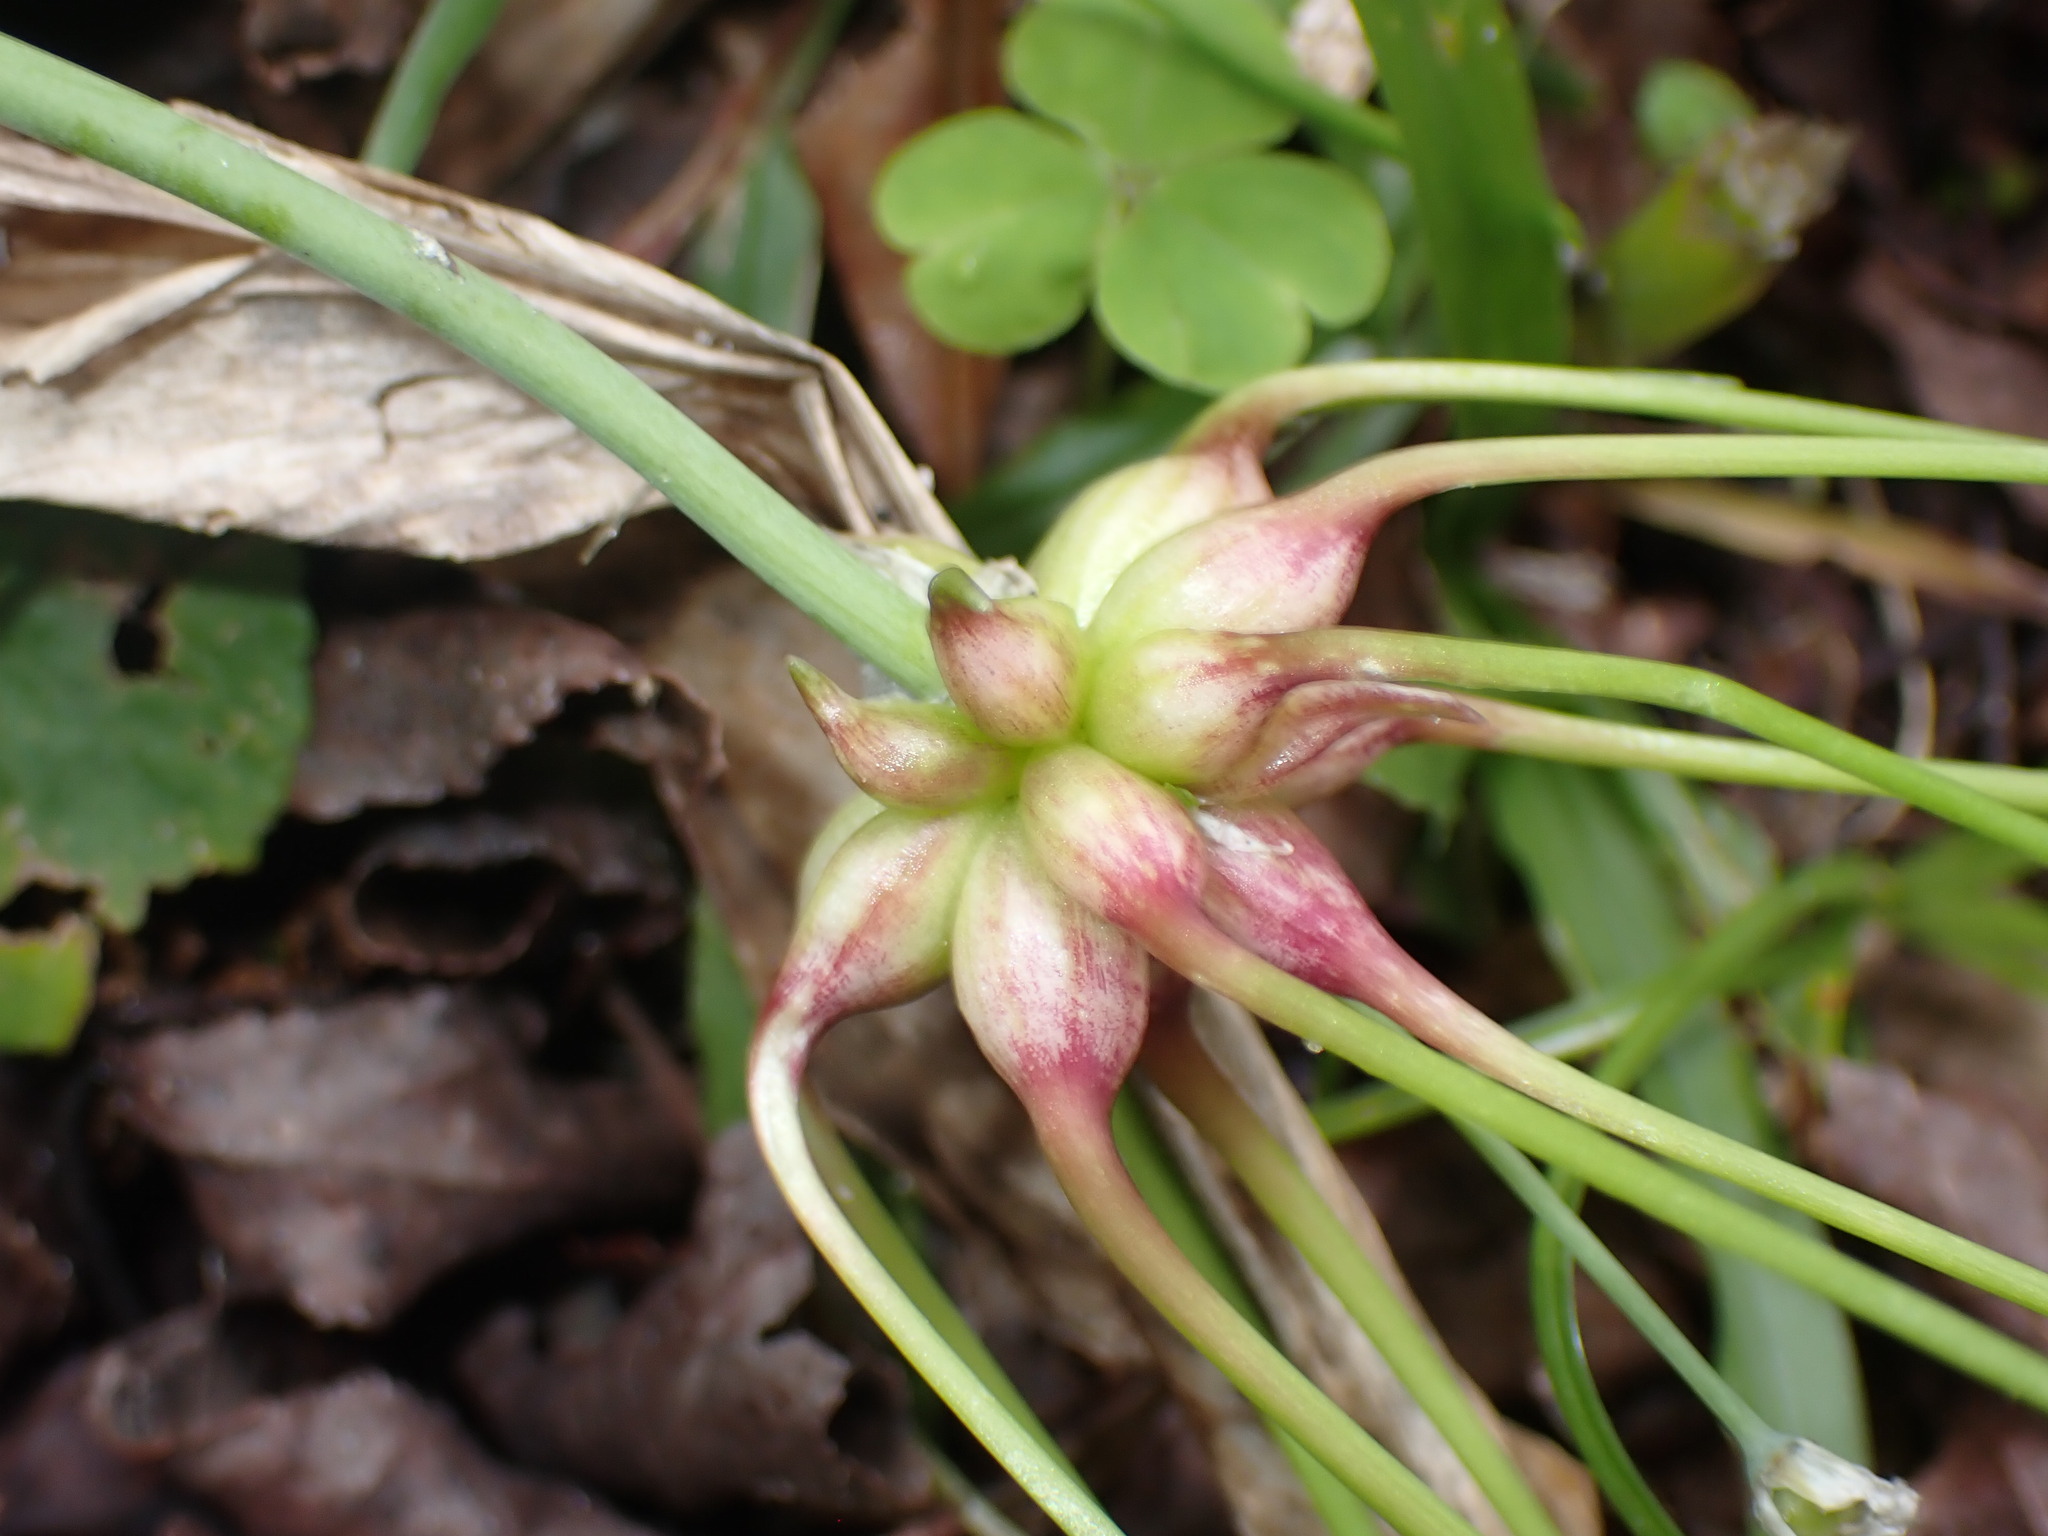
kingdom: Plantae
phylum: Tracheophyta
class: Liliopsida
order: Asparagales
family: Amaryllidaceae
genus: Allium
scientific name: Allium canadense
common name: Meadow garlic
